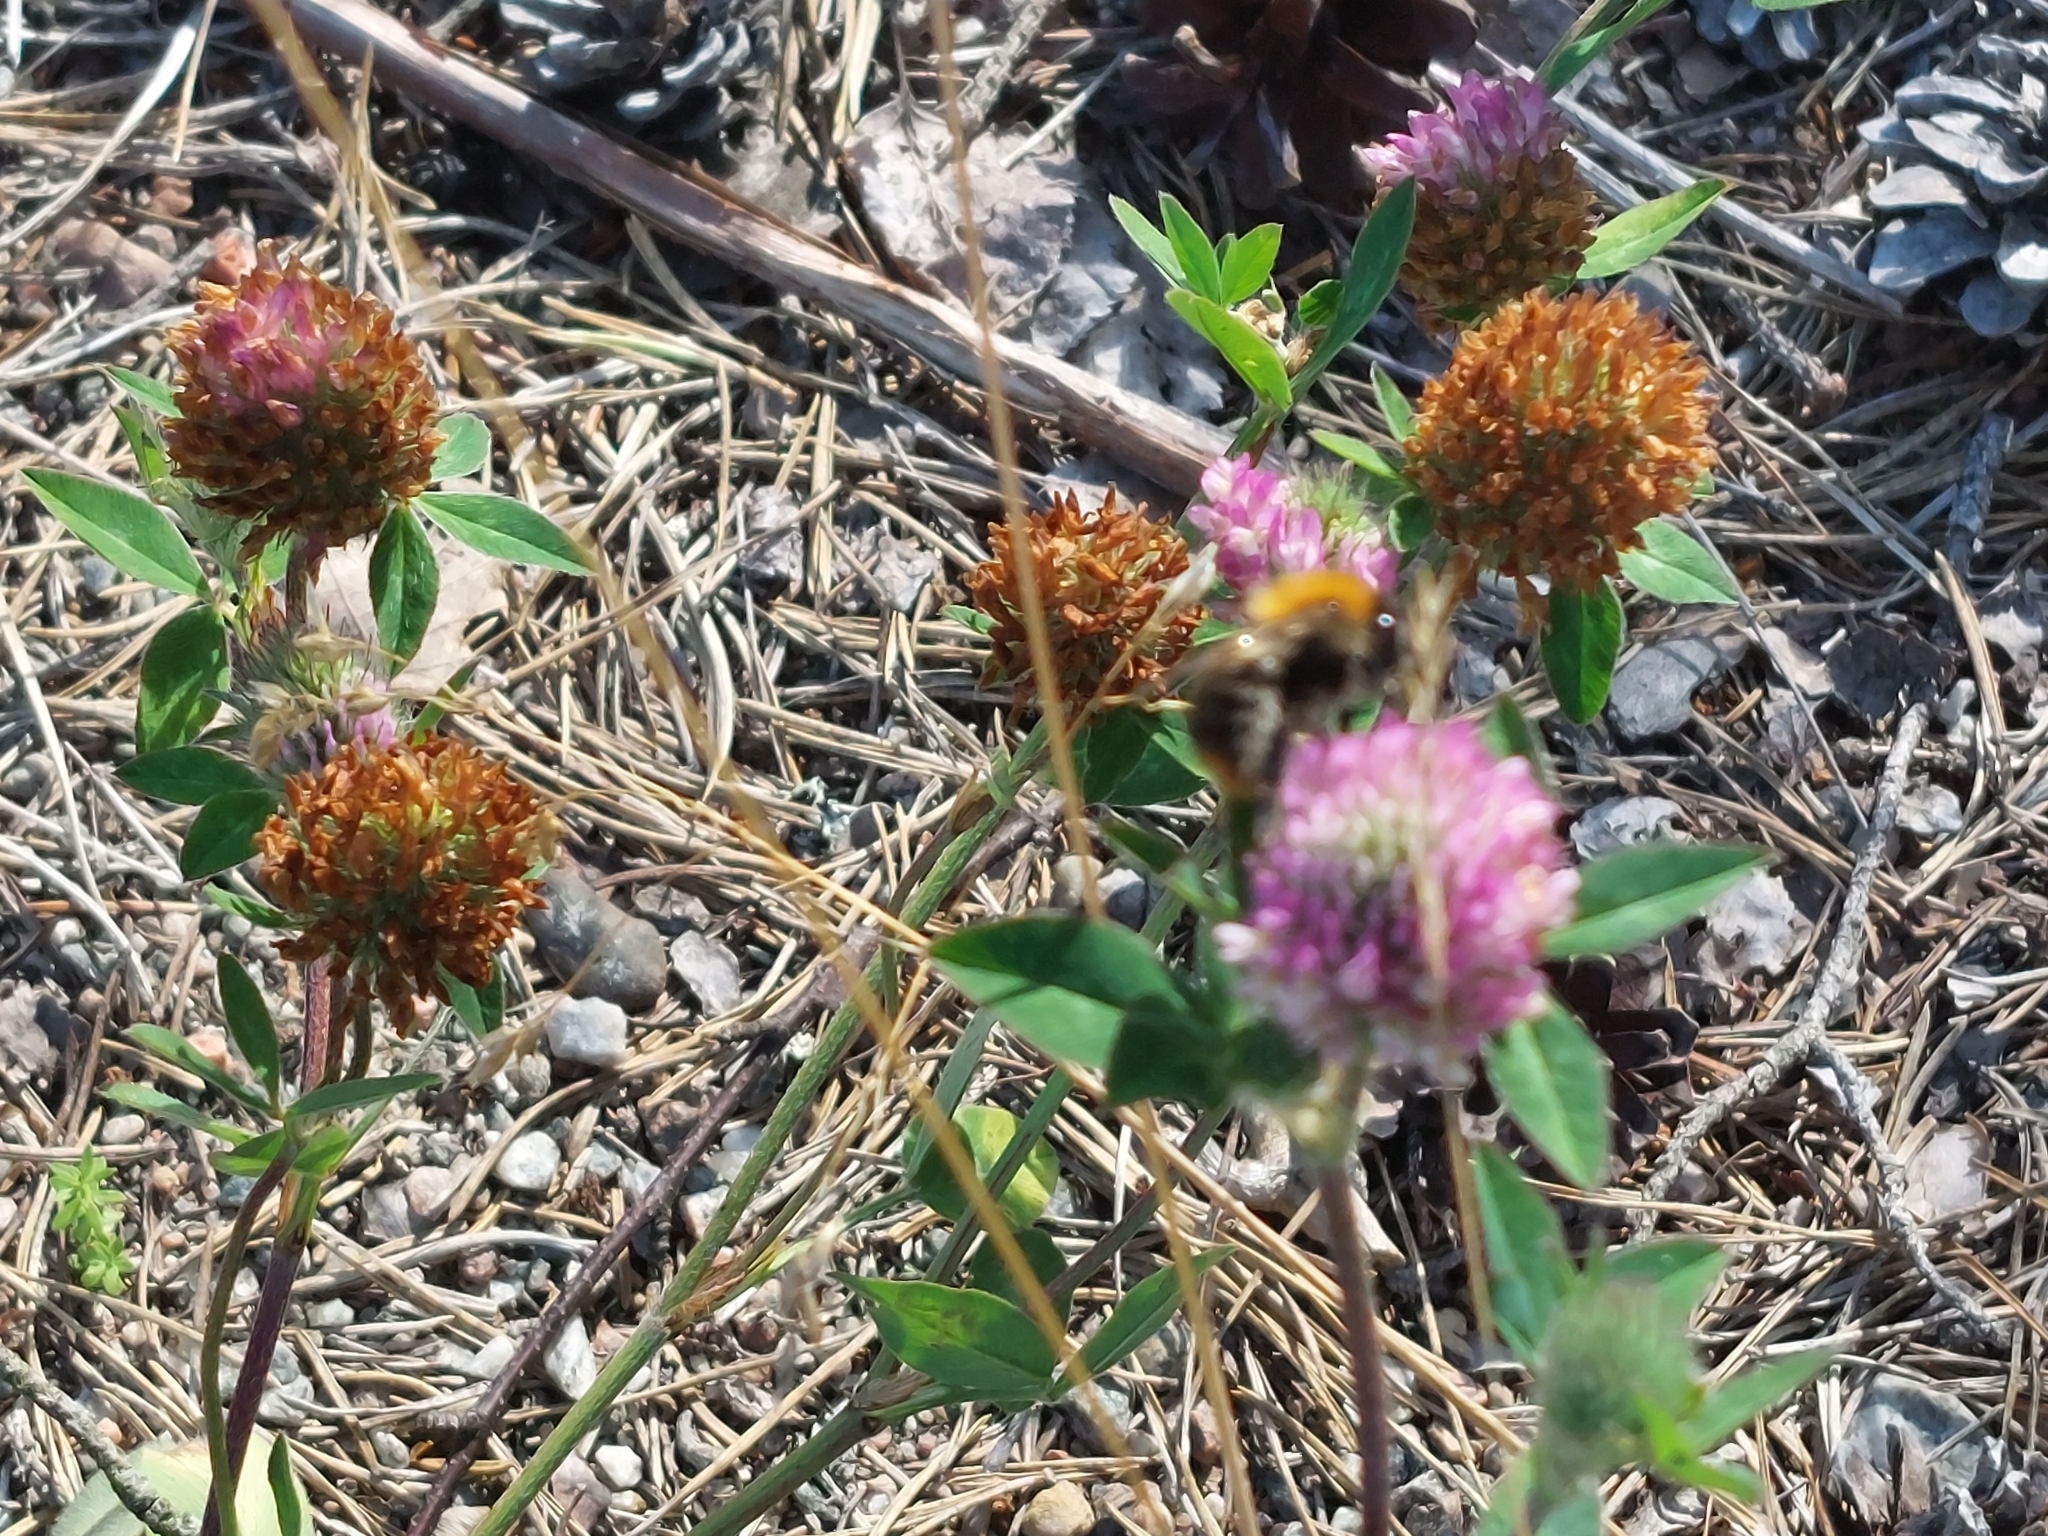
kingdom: Animalia
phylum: Arthropoda
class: Insecta
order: Hymenoptera
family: Apidae
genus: Bombus
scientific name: Bombus pascuorum
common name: Common carder bee
